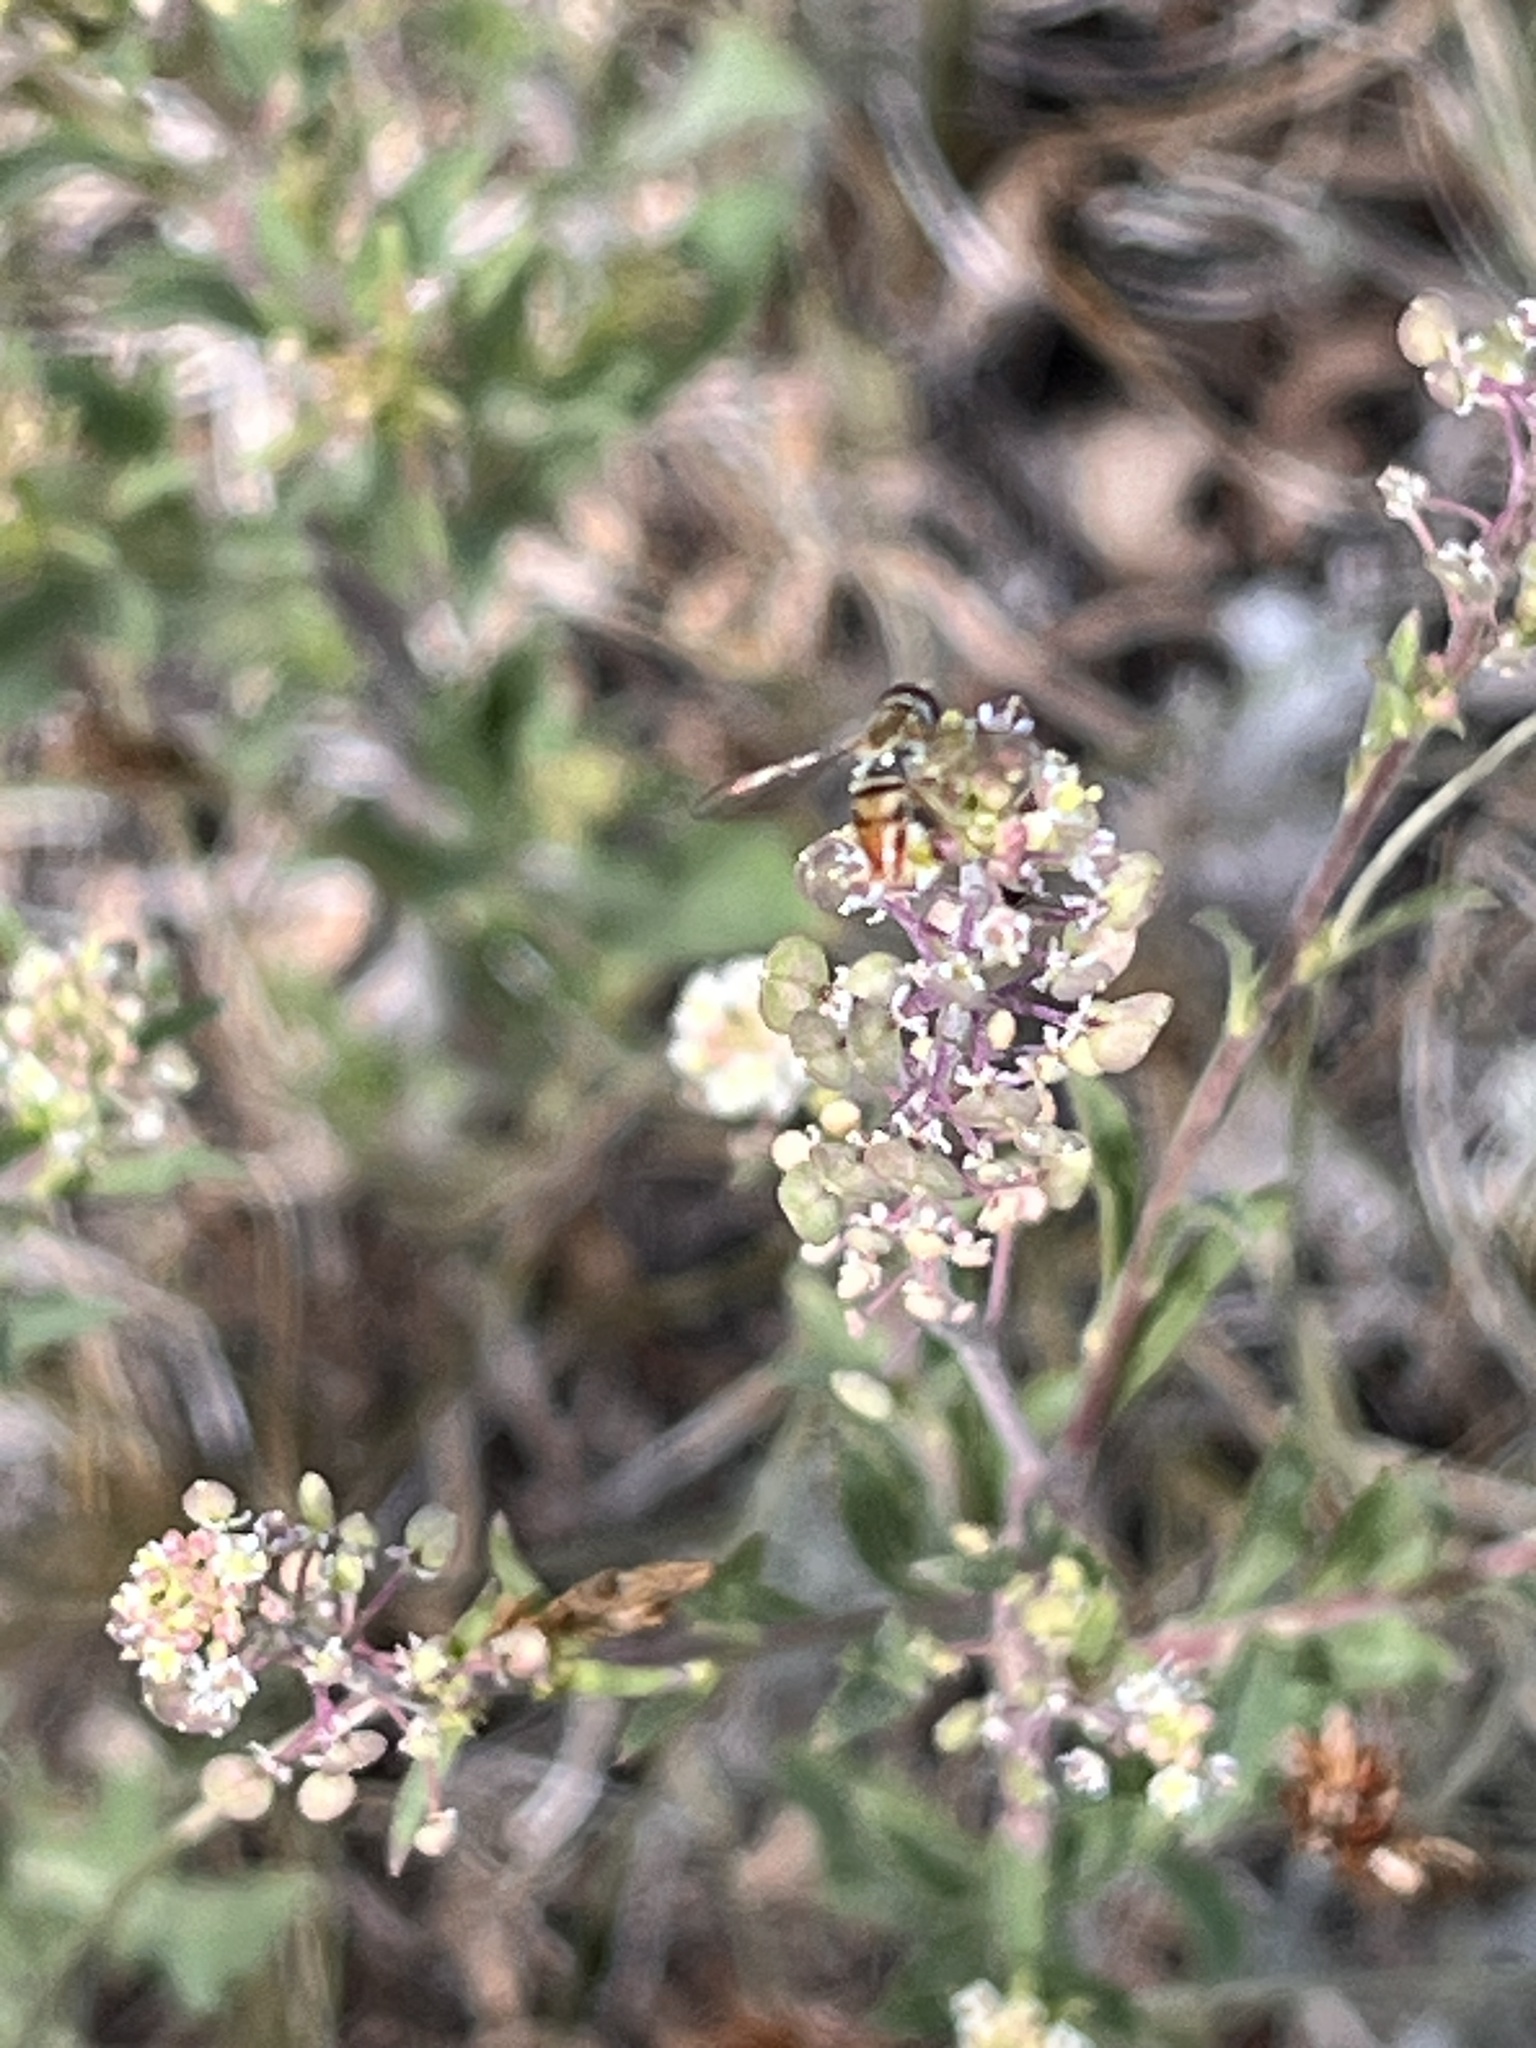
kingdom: Animalia
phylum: Arthropoda
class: Insecta
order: Diptera
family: Syrphidae
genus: Toxomerus
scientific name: Toxomerus marginatus
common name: Syrphid fly
